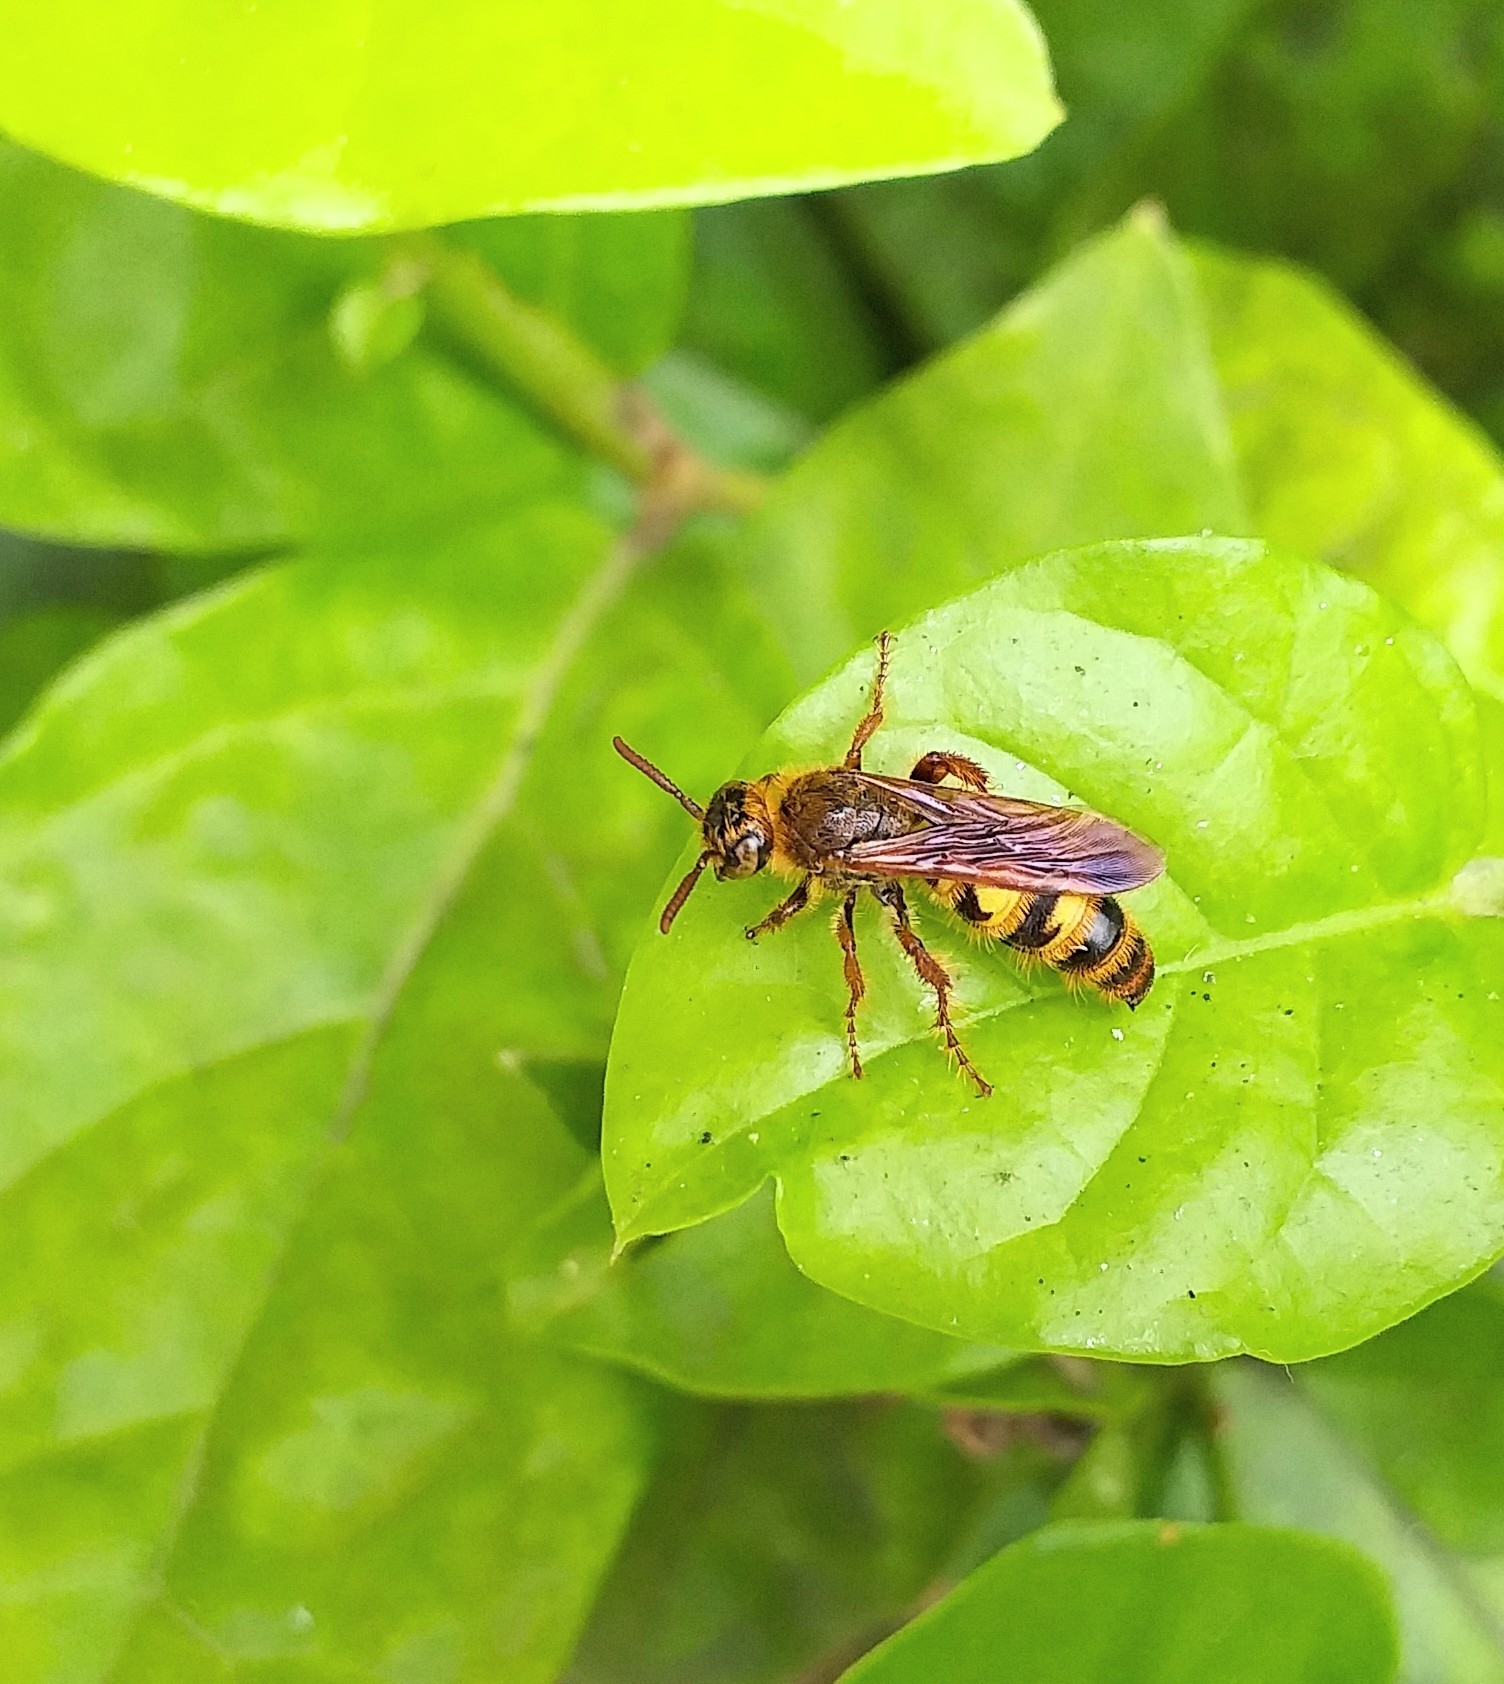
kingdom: Animalia
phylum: Arthropoda
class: Insecta
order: Hymenoptera
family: Scoliidae
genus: Phalerimeris
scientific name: Phalerimeris
